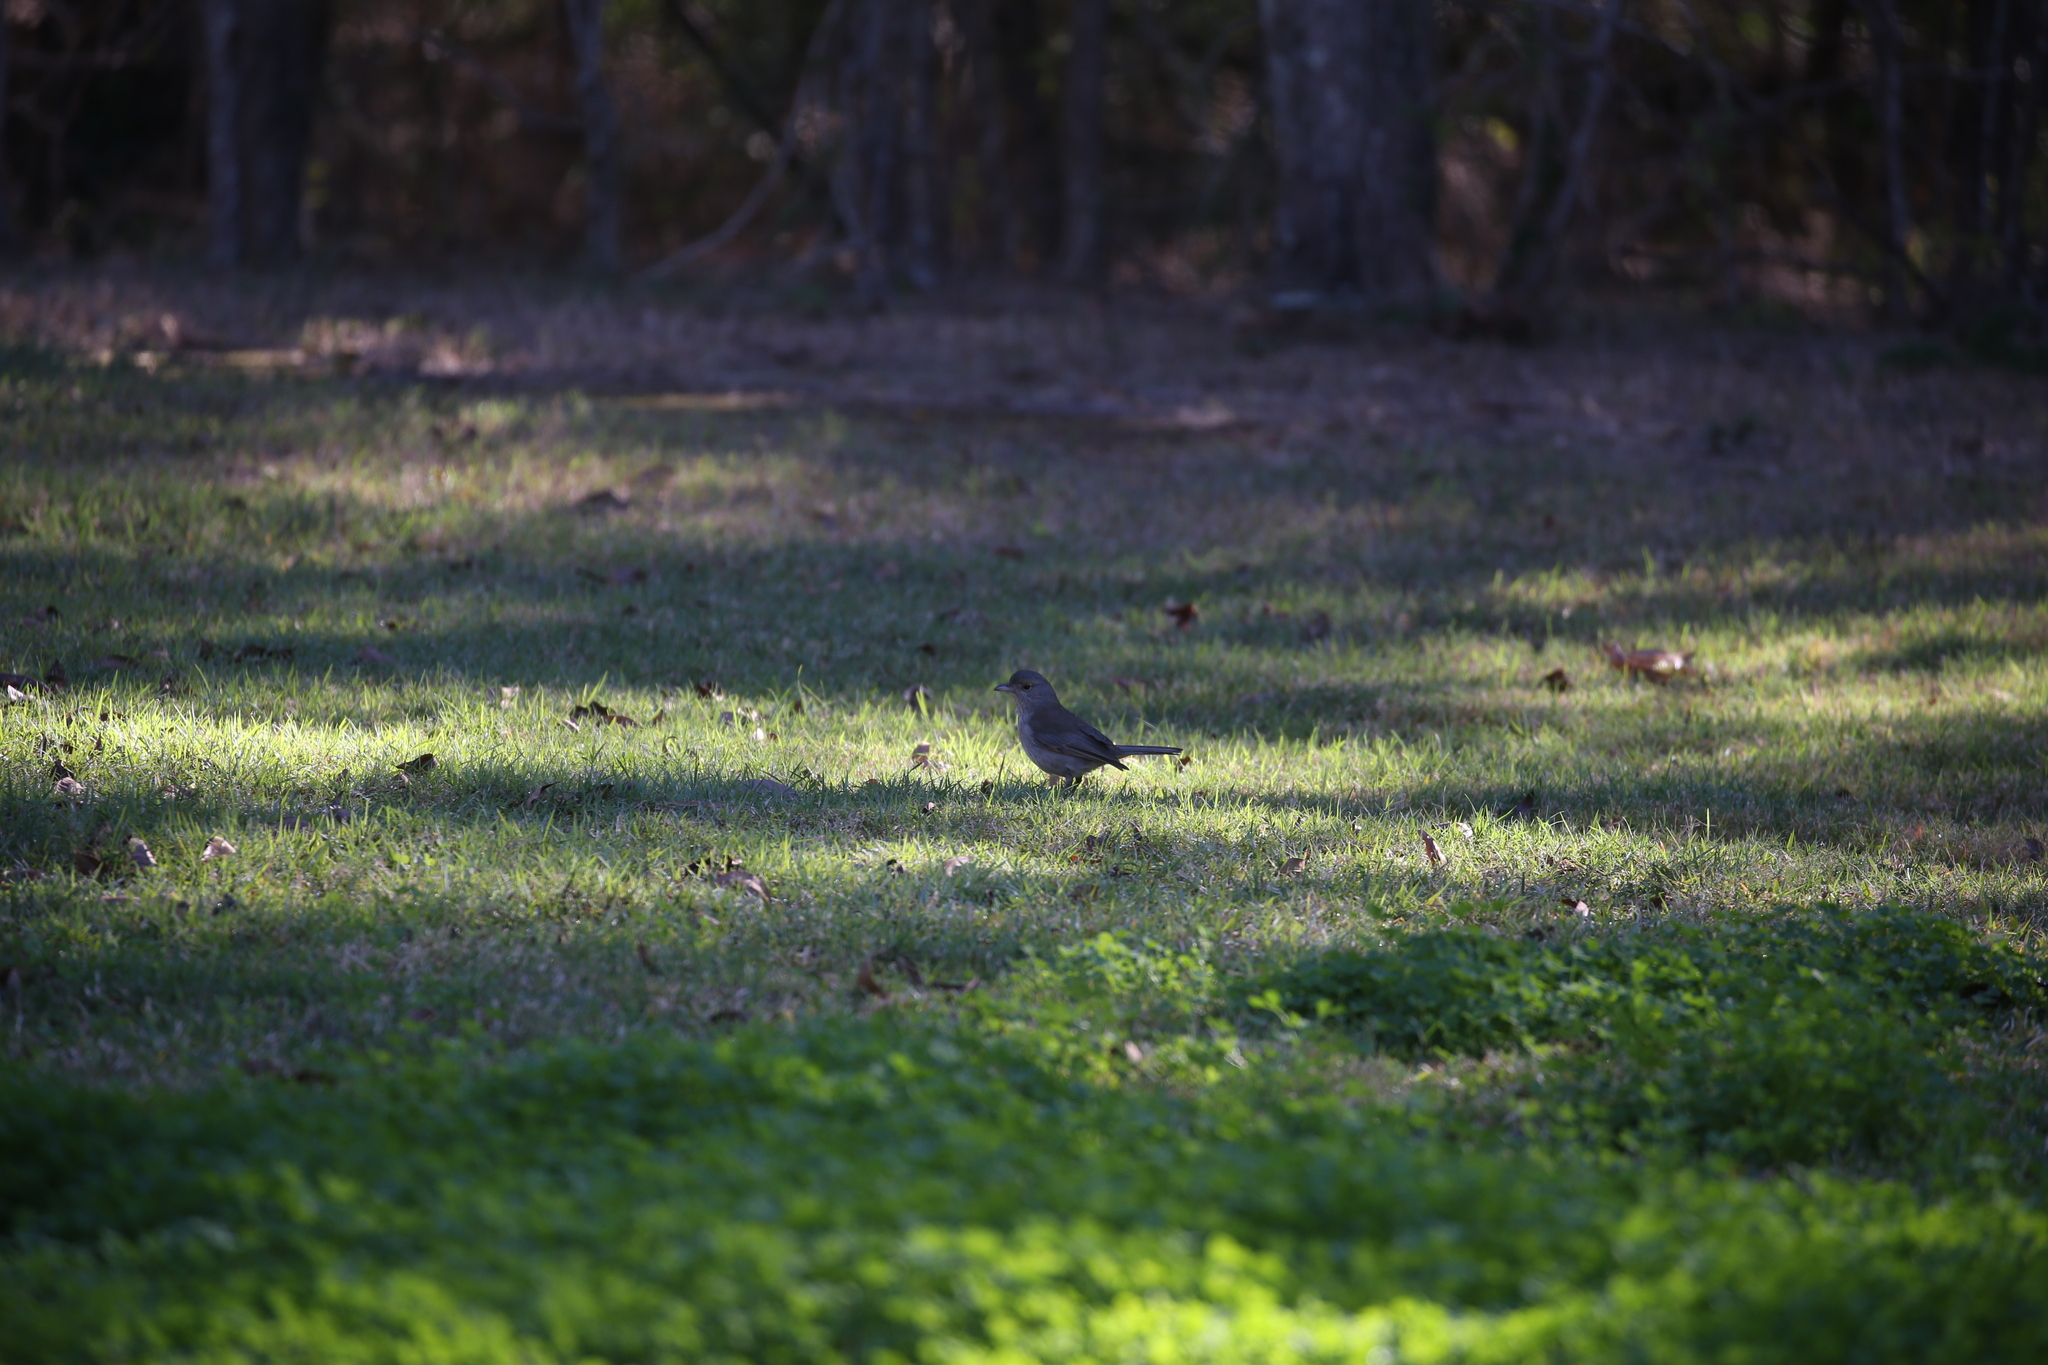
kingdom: Animalia
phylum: Chordata
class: Aves
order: Passeriformes
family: Pachycephalidae
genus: Colluricincla
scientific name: Colluricincla harmonica
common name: Grey shrikethrush
